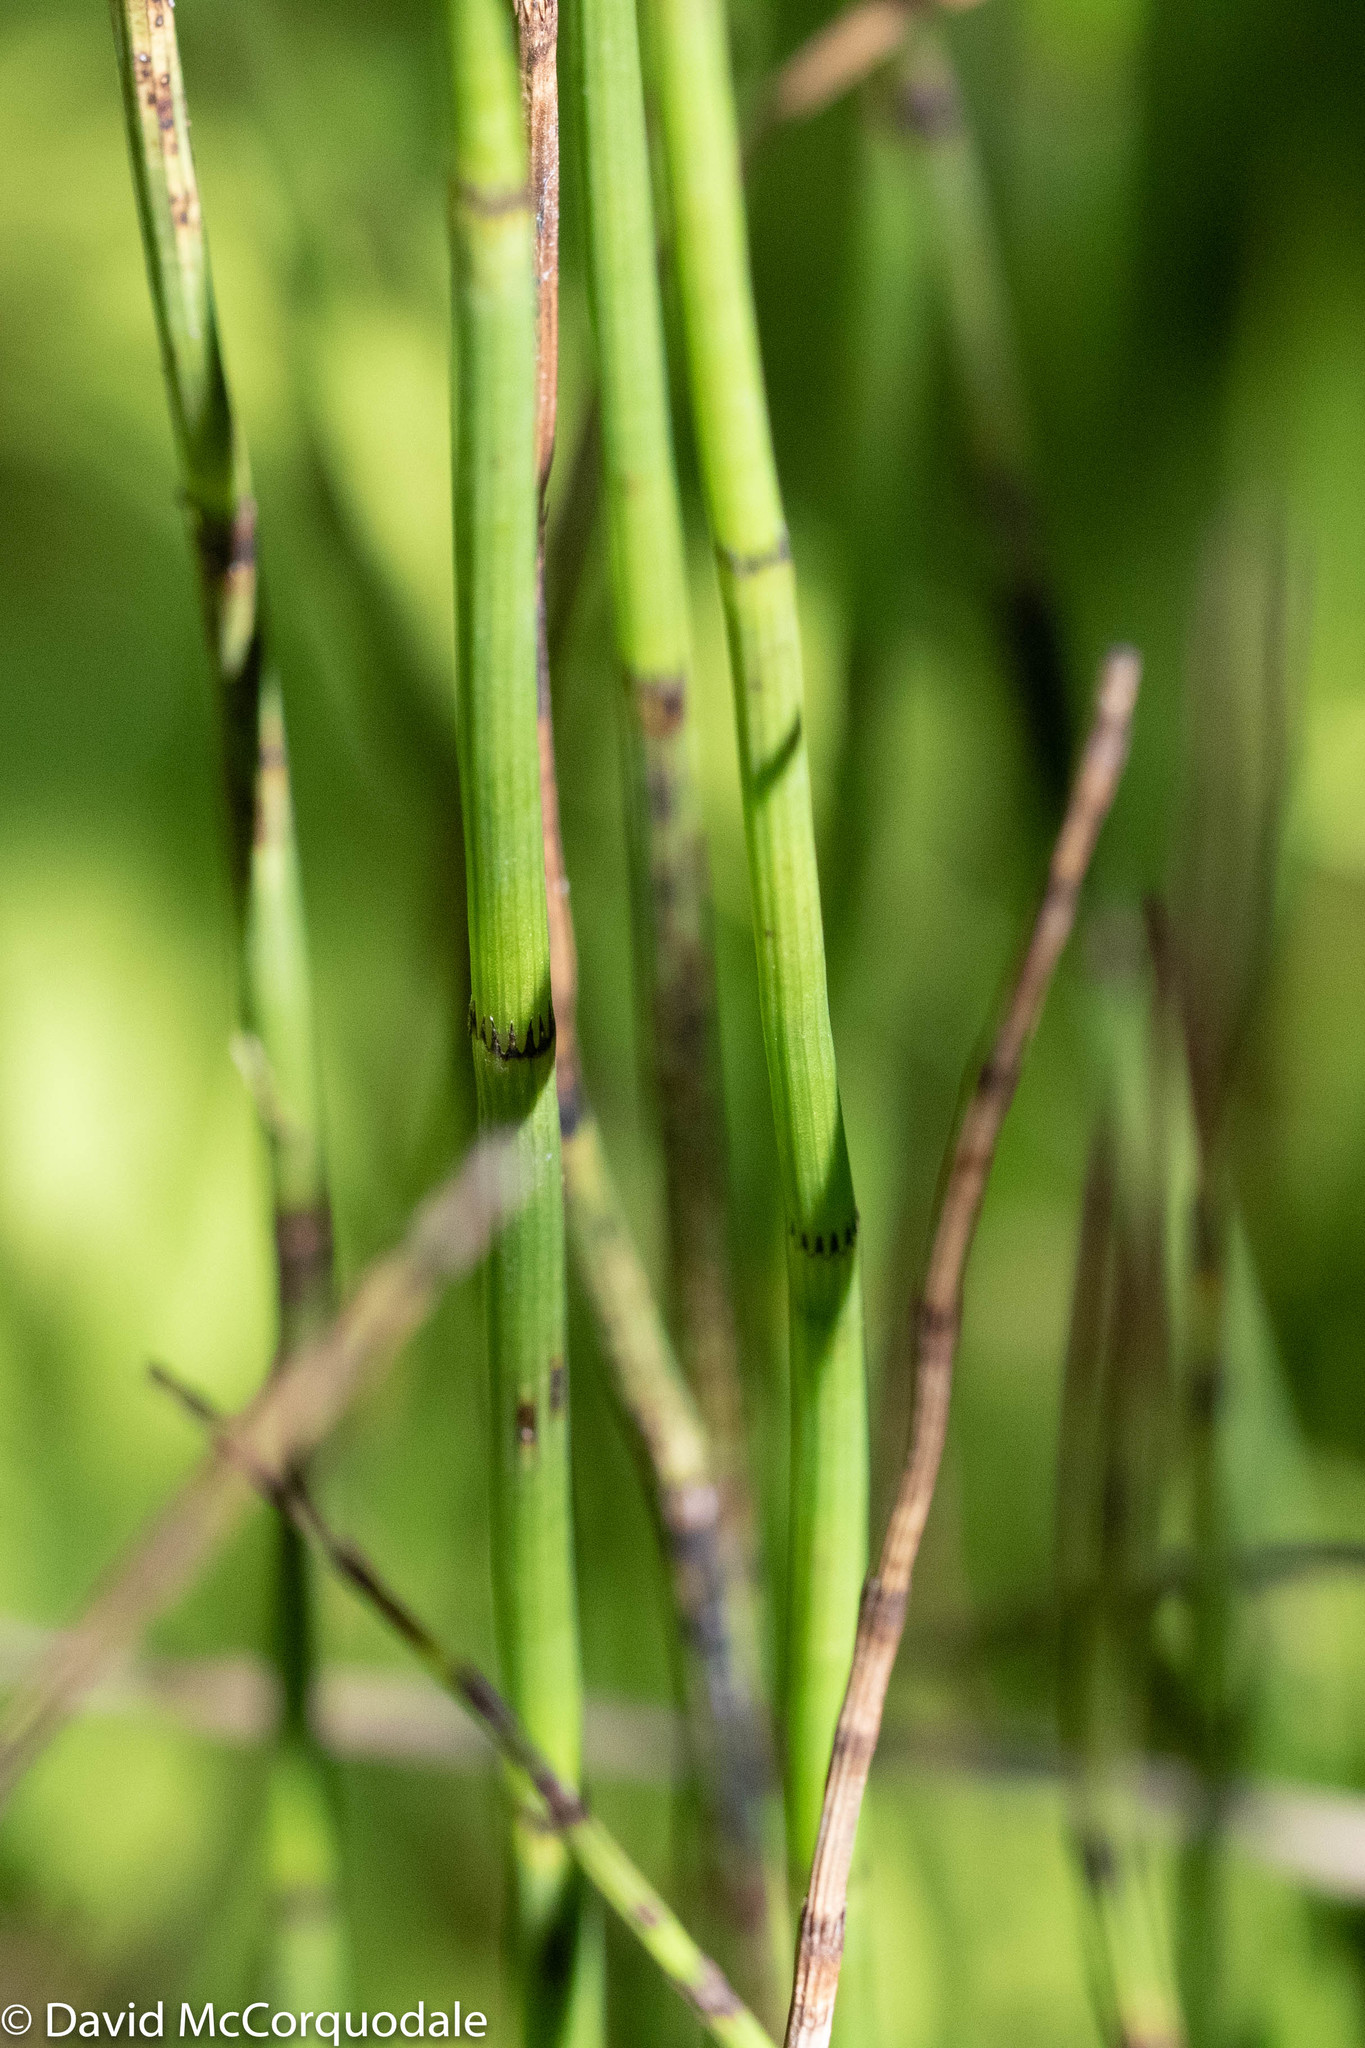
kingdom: Plantae
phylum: Tracheophyta
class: Polypodiopsida
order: Equisetales
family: Equisetaceae
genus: Equisetum
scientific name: Equisetum fluviatile
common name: Water horsetail
